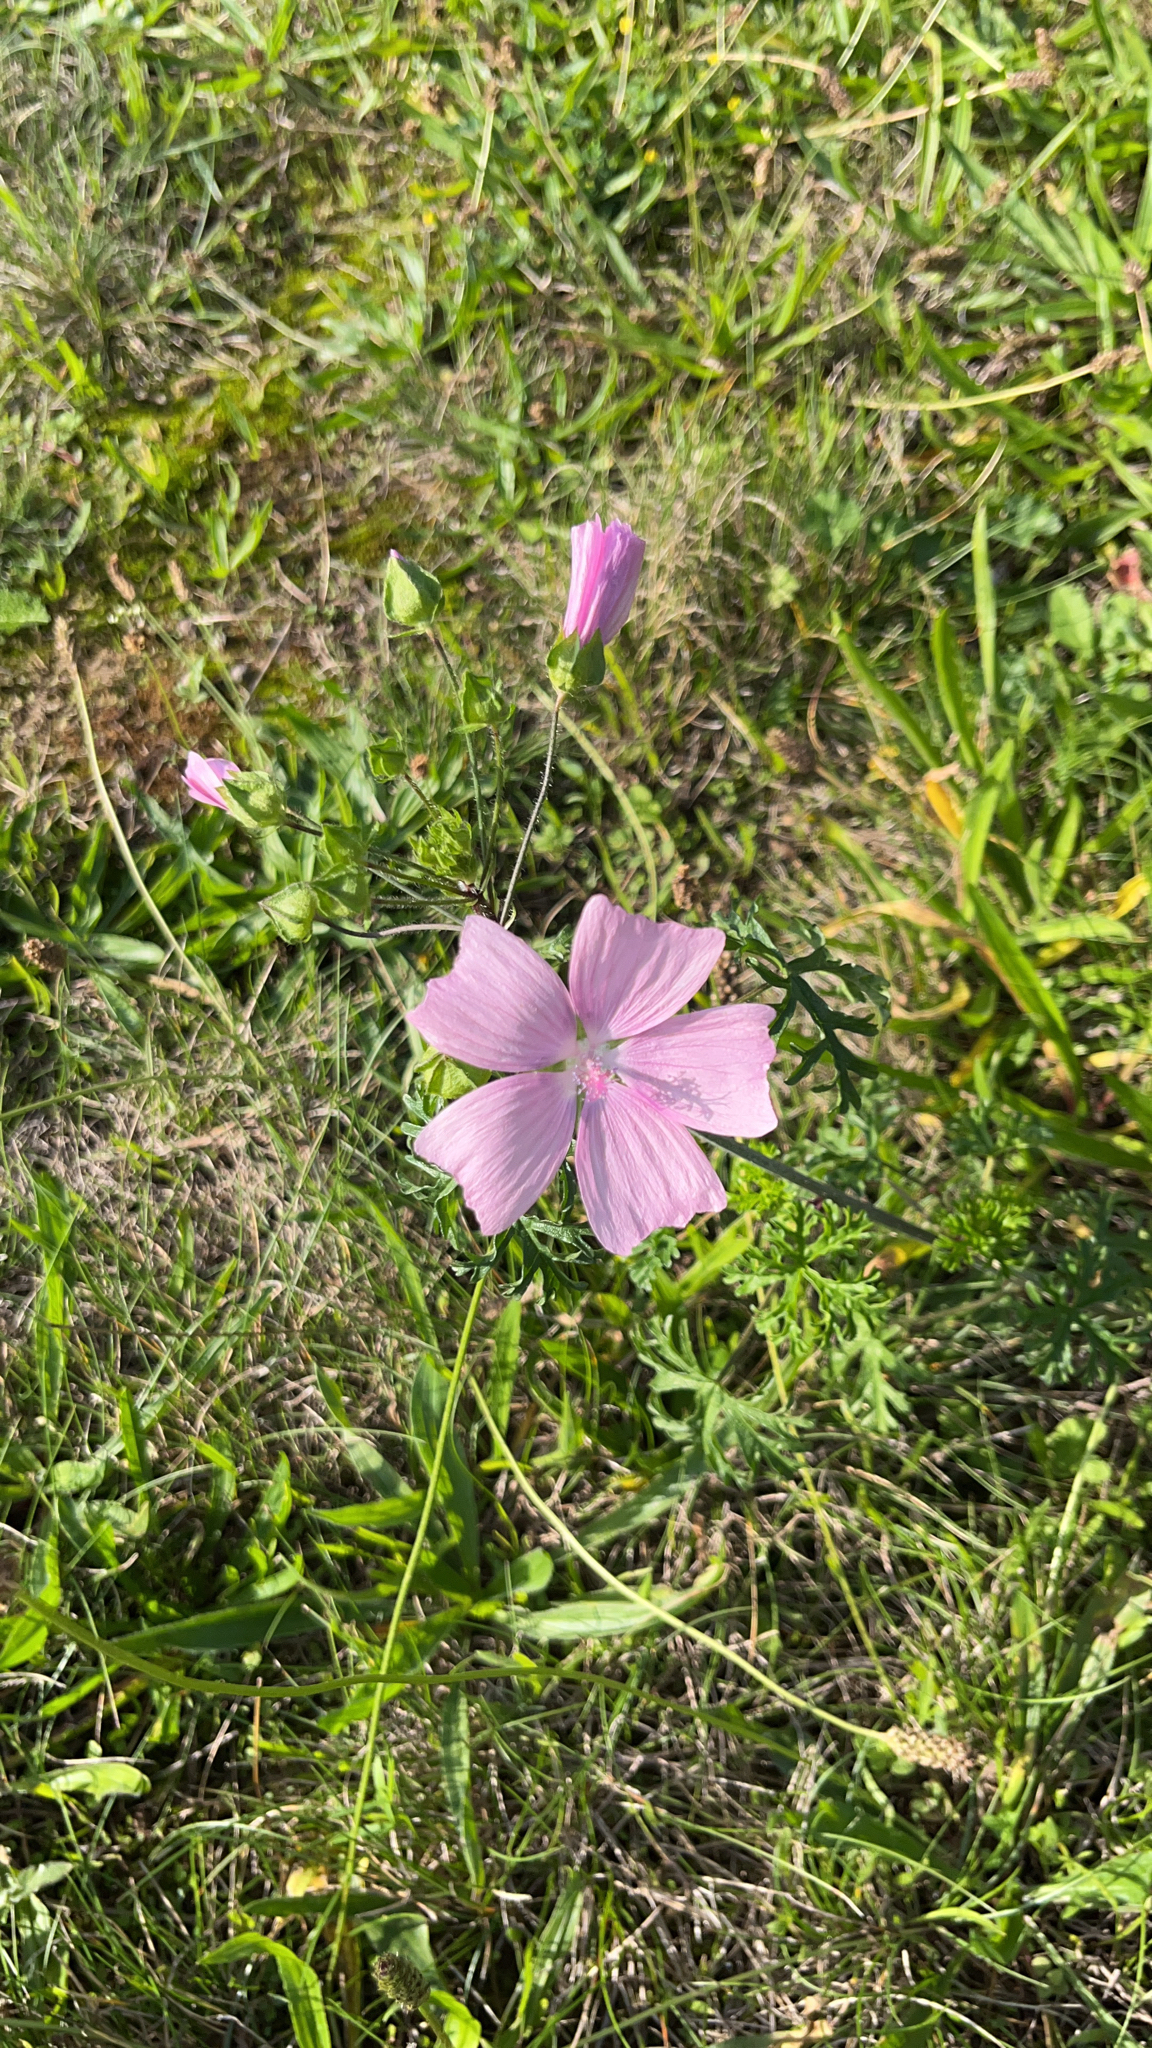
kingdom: Plantae
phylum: Tracheophyta
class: Magnoliopsida
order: Malvales
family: Malvaceae
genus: Malva
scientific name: Malva moschata
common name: Musk mallow
